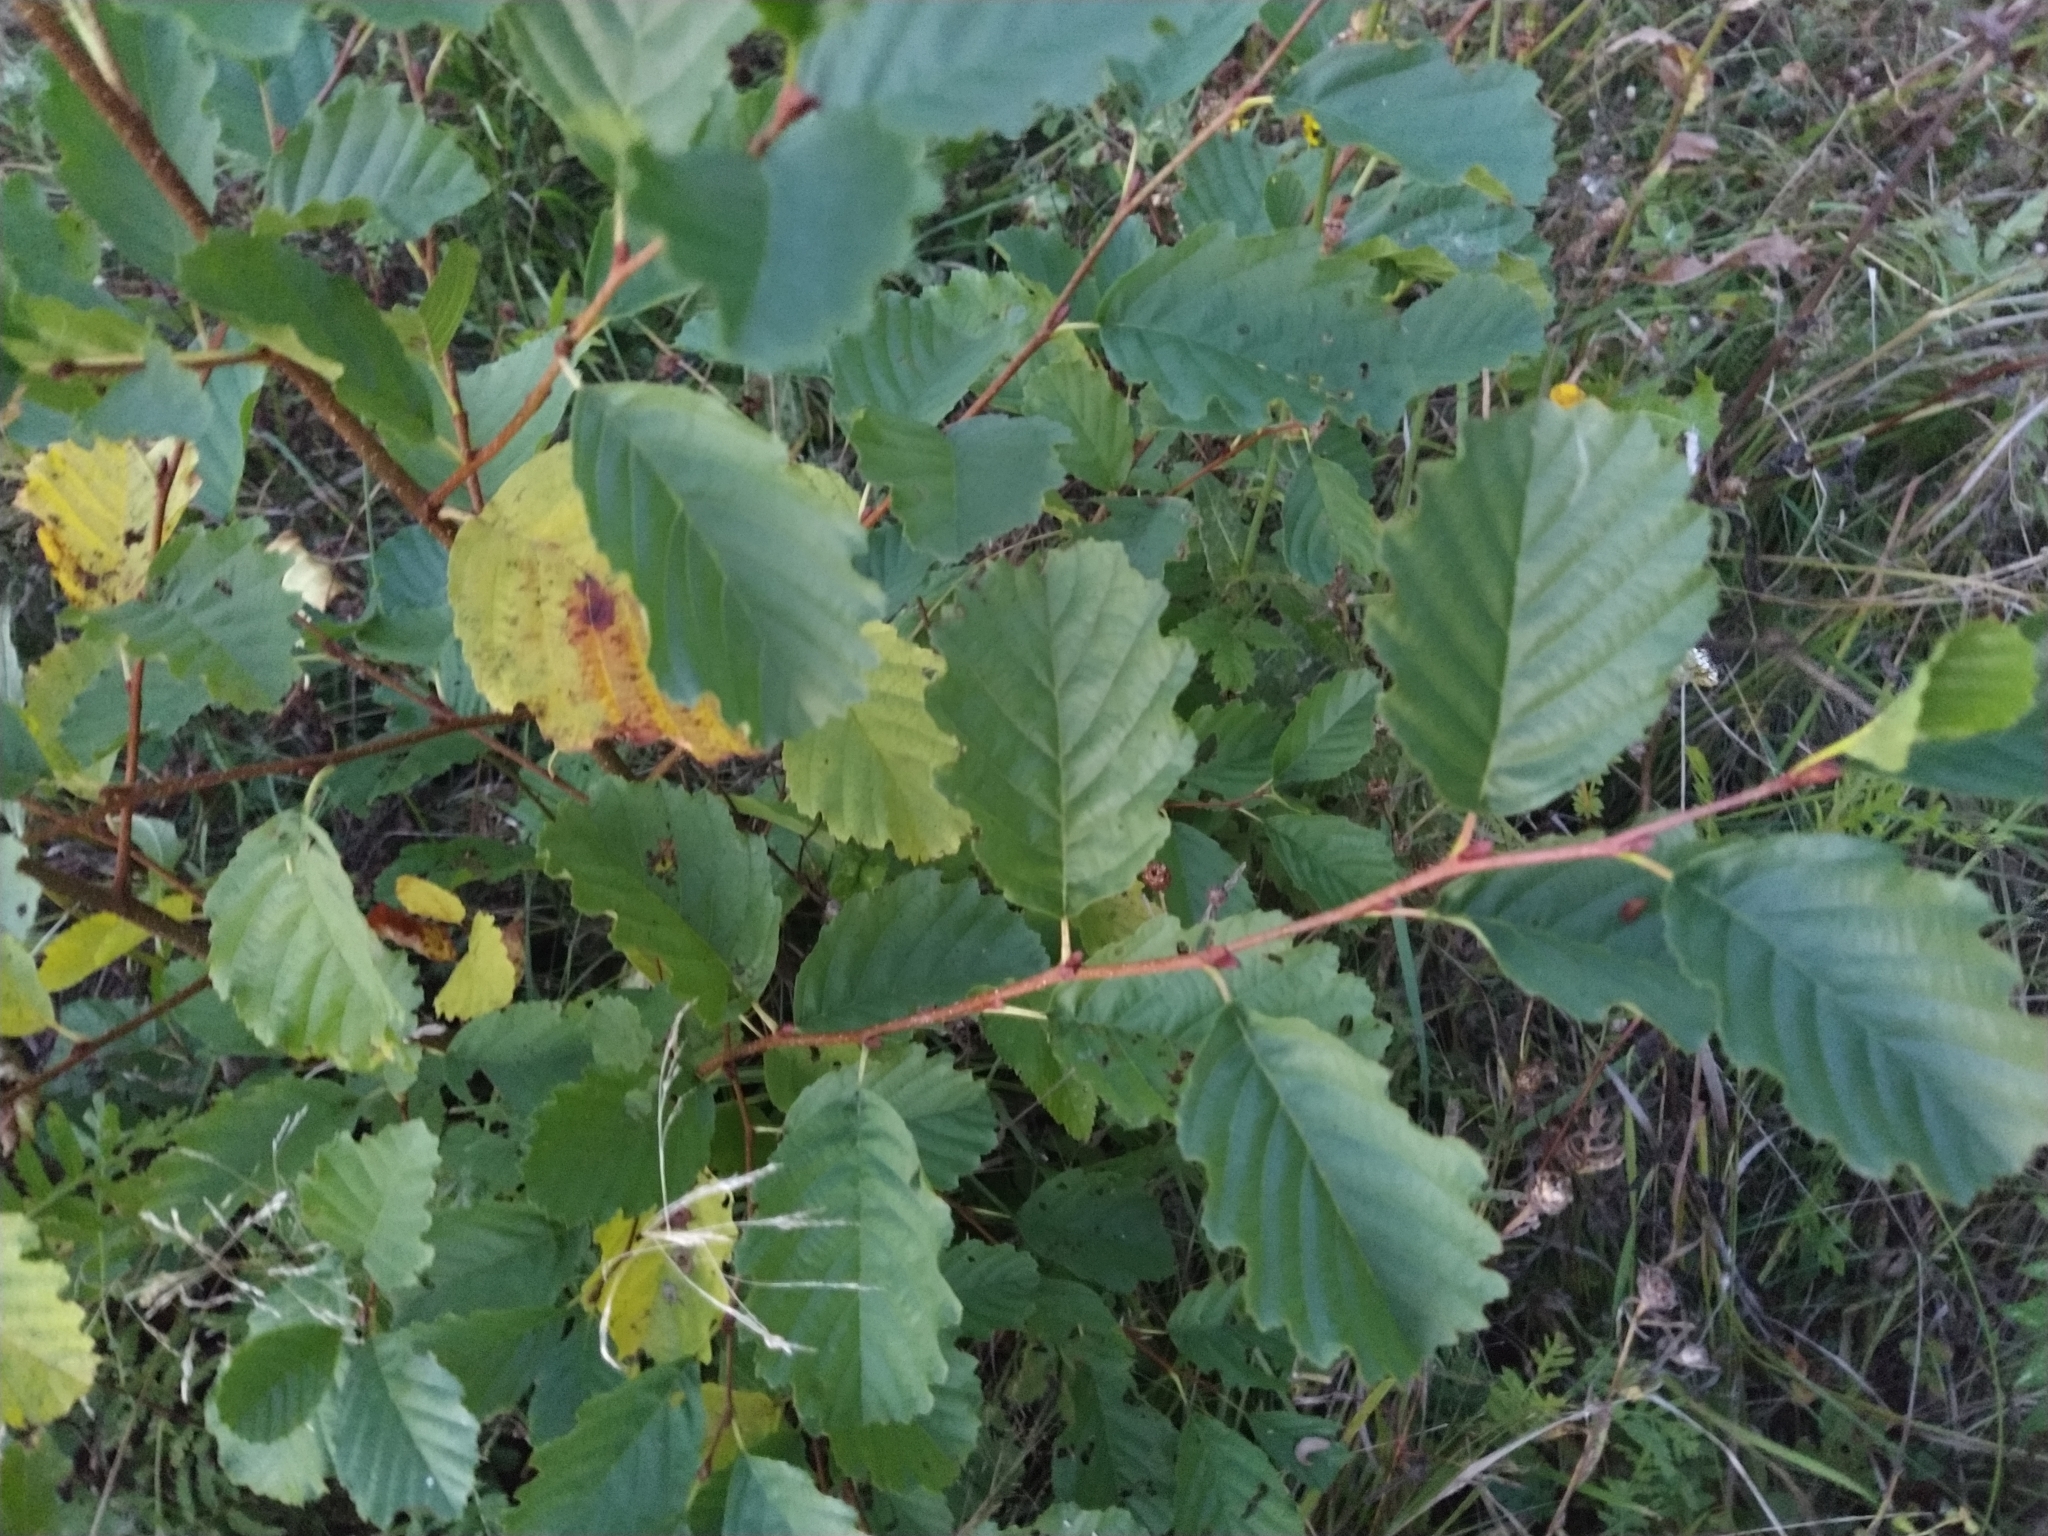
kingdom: Plantae
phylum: Tracheophyta
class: Magnoliopsida
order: Fagales
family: Betulaceae
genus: Alnus
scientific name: Alnus glutinosa
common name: Black alder
